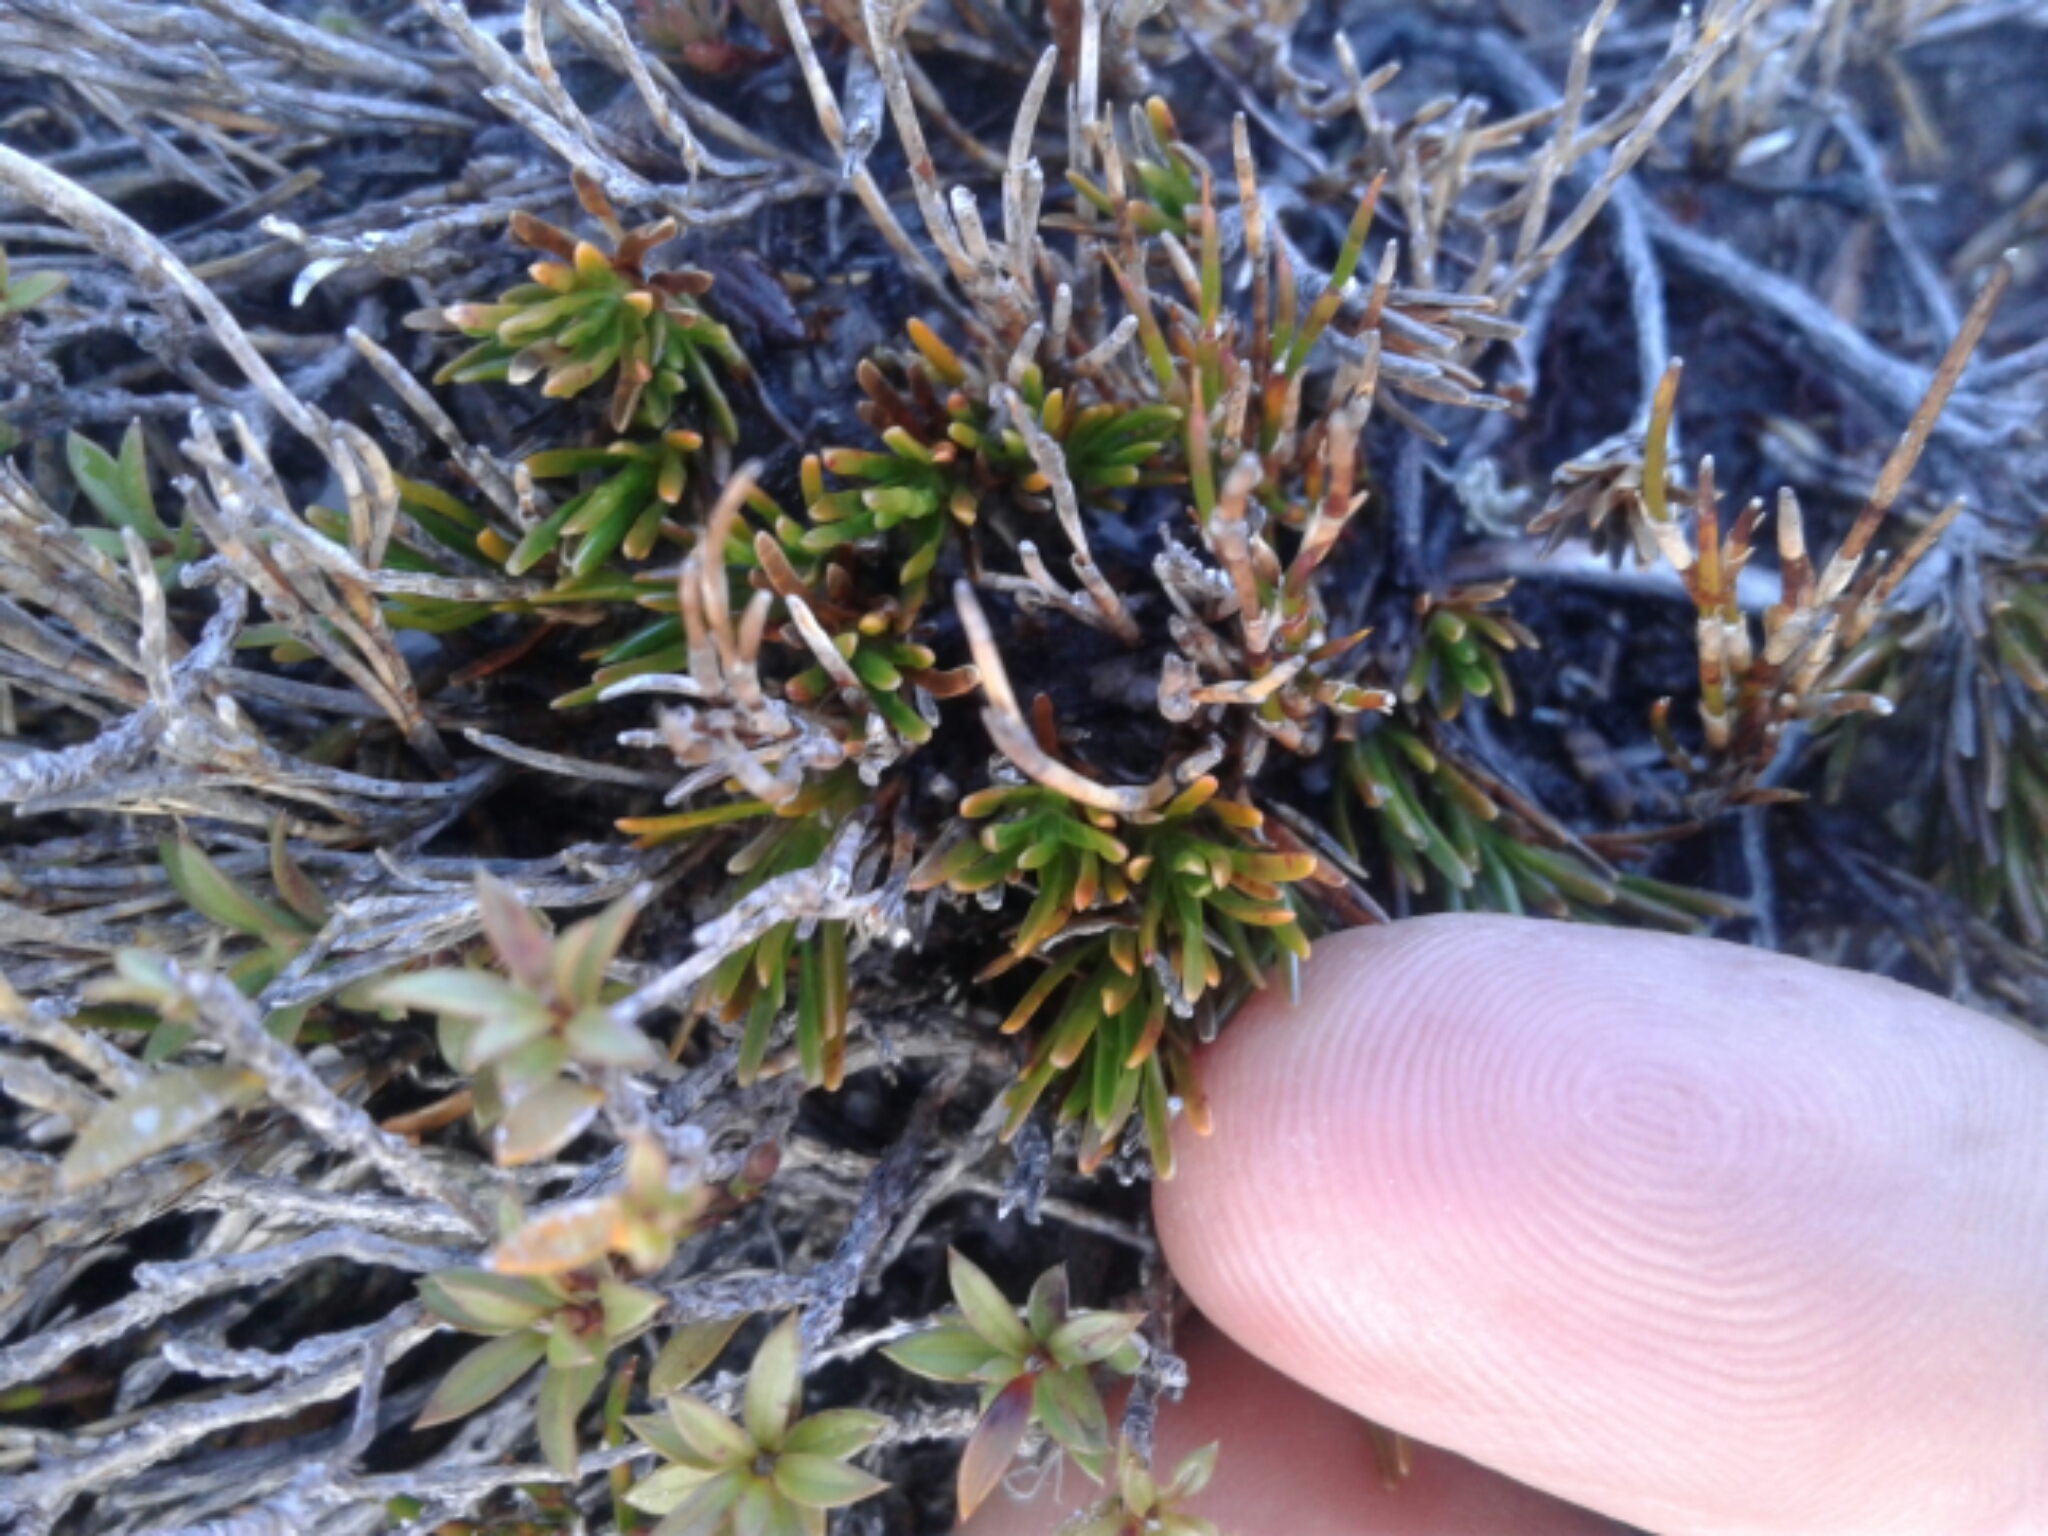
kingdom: Plantae
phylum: Tracheophyta
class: Magnoliopsida
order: Ericales
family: Ericaceae
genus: Dracophyllum
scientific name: Dracophyllum densum
